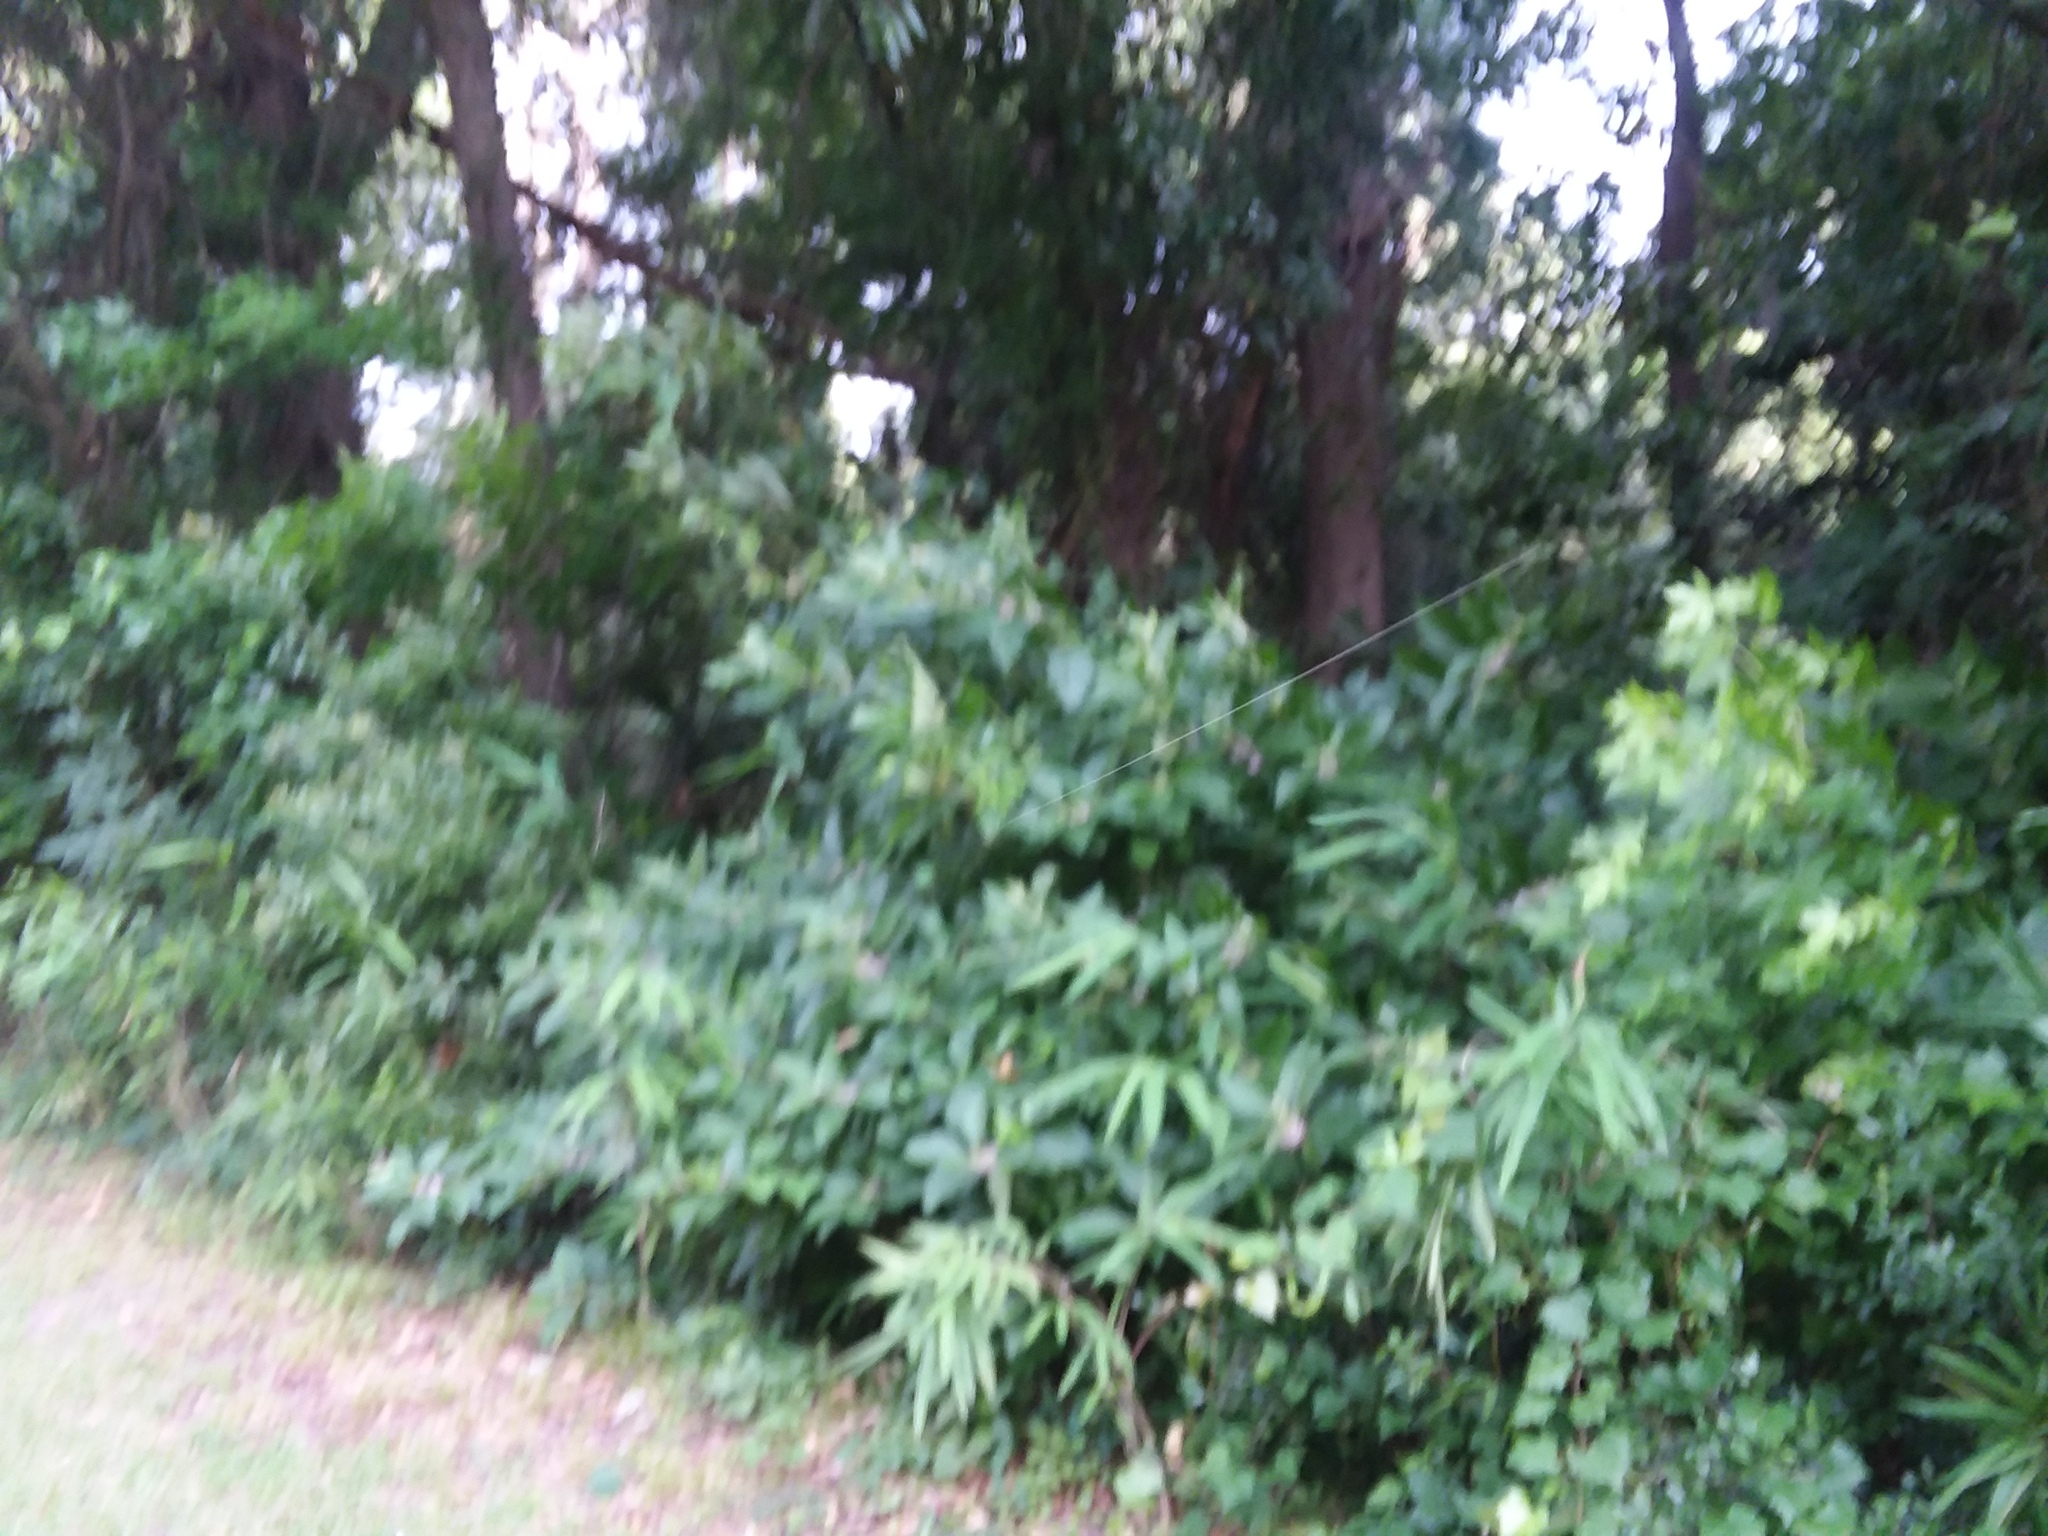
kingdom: Plantae
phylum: Tracheophyta
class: Magnoliopsida
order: Lamiales
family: Lamiaceae
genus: Callicarpa
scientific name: Callicarpa americana
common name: American beautyberry
